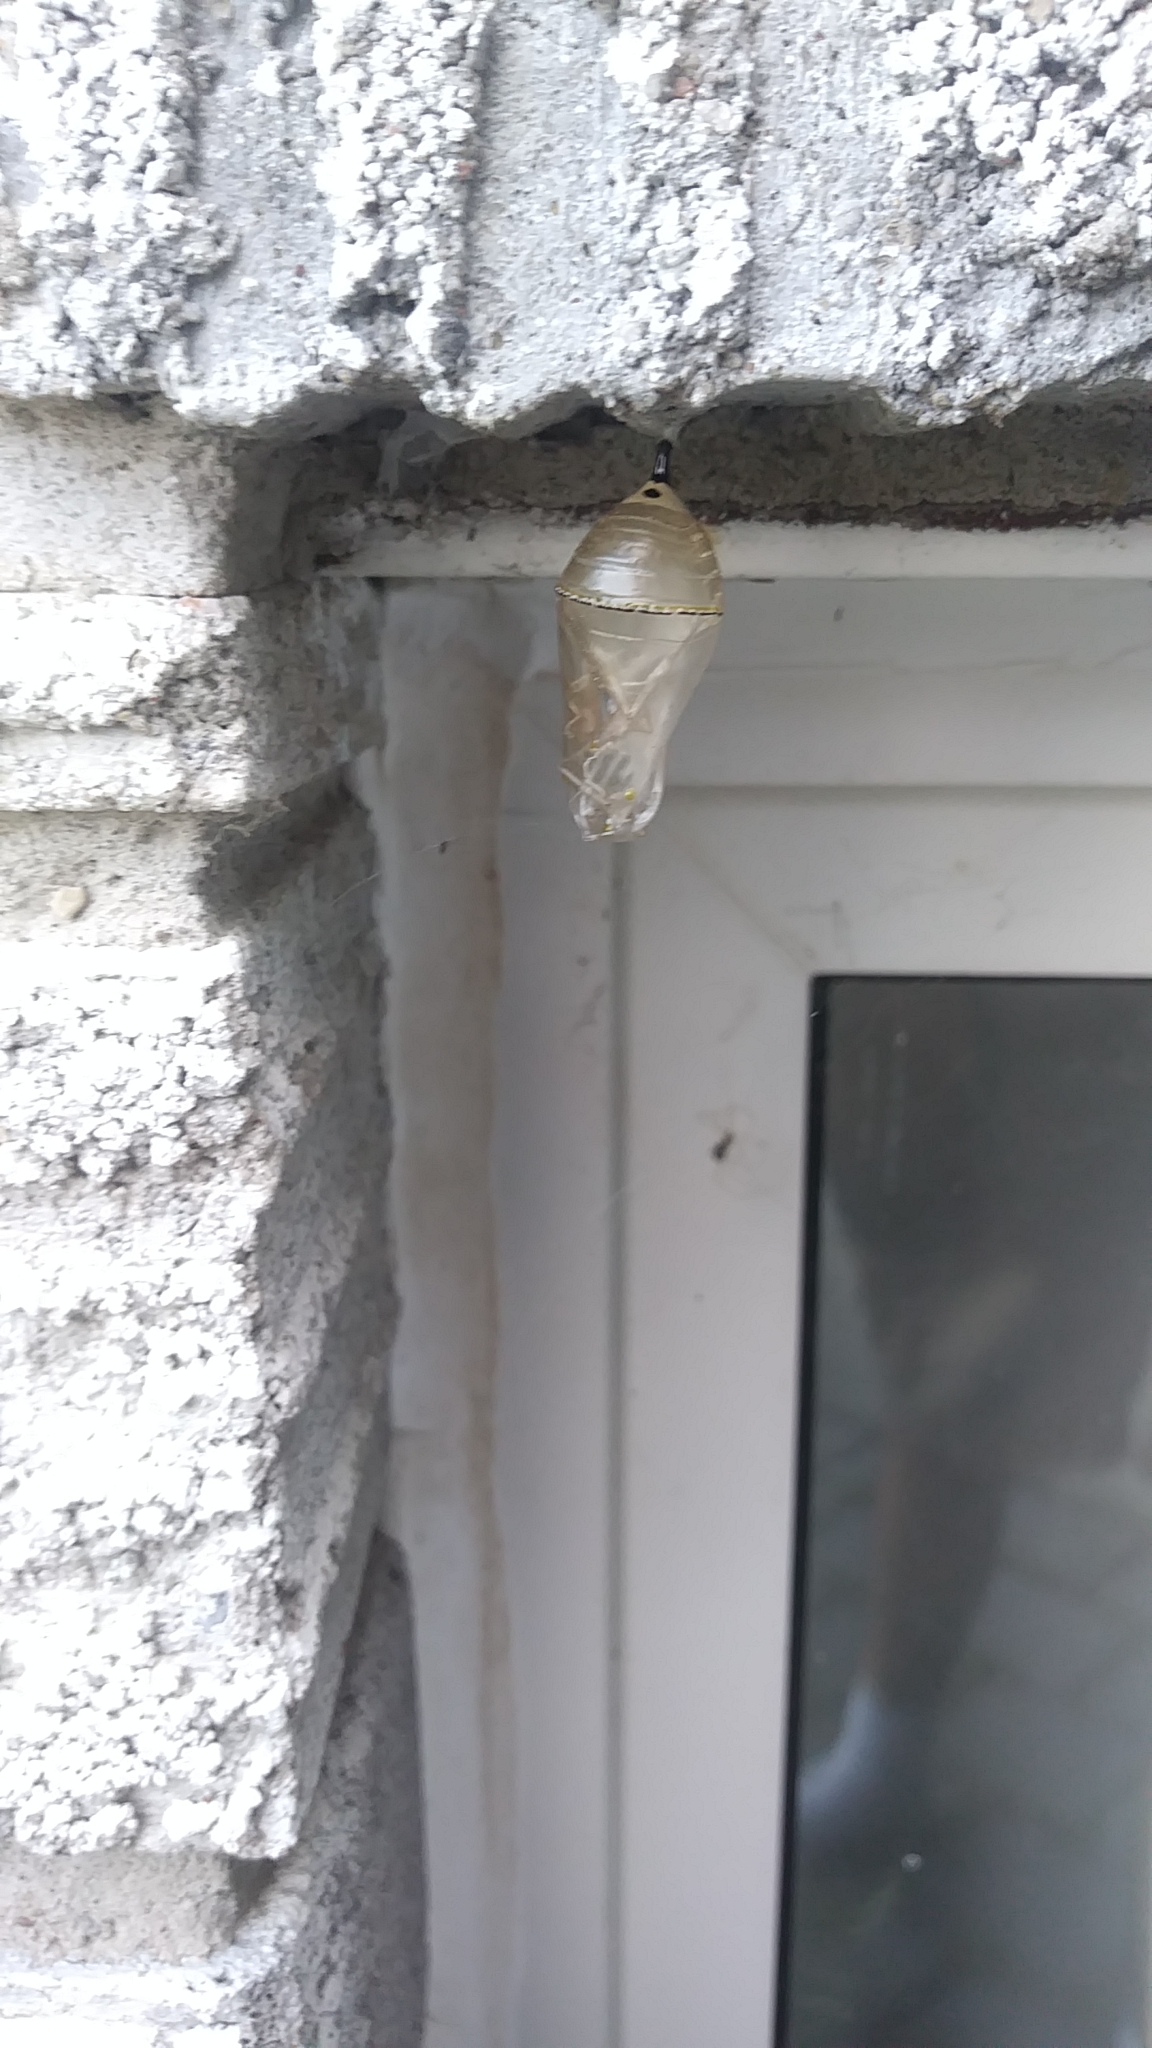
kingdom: Animalia
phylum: Arthropoda
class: Insecta
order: Lepidoptera
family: Nymphalidae
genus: Danaus
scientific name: Danaus plexippus
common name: Monarch
